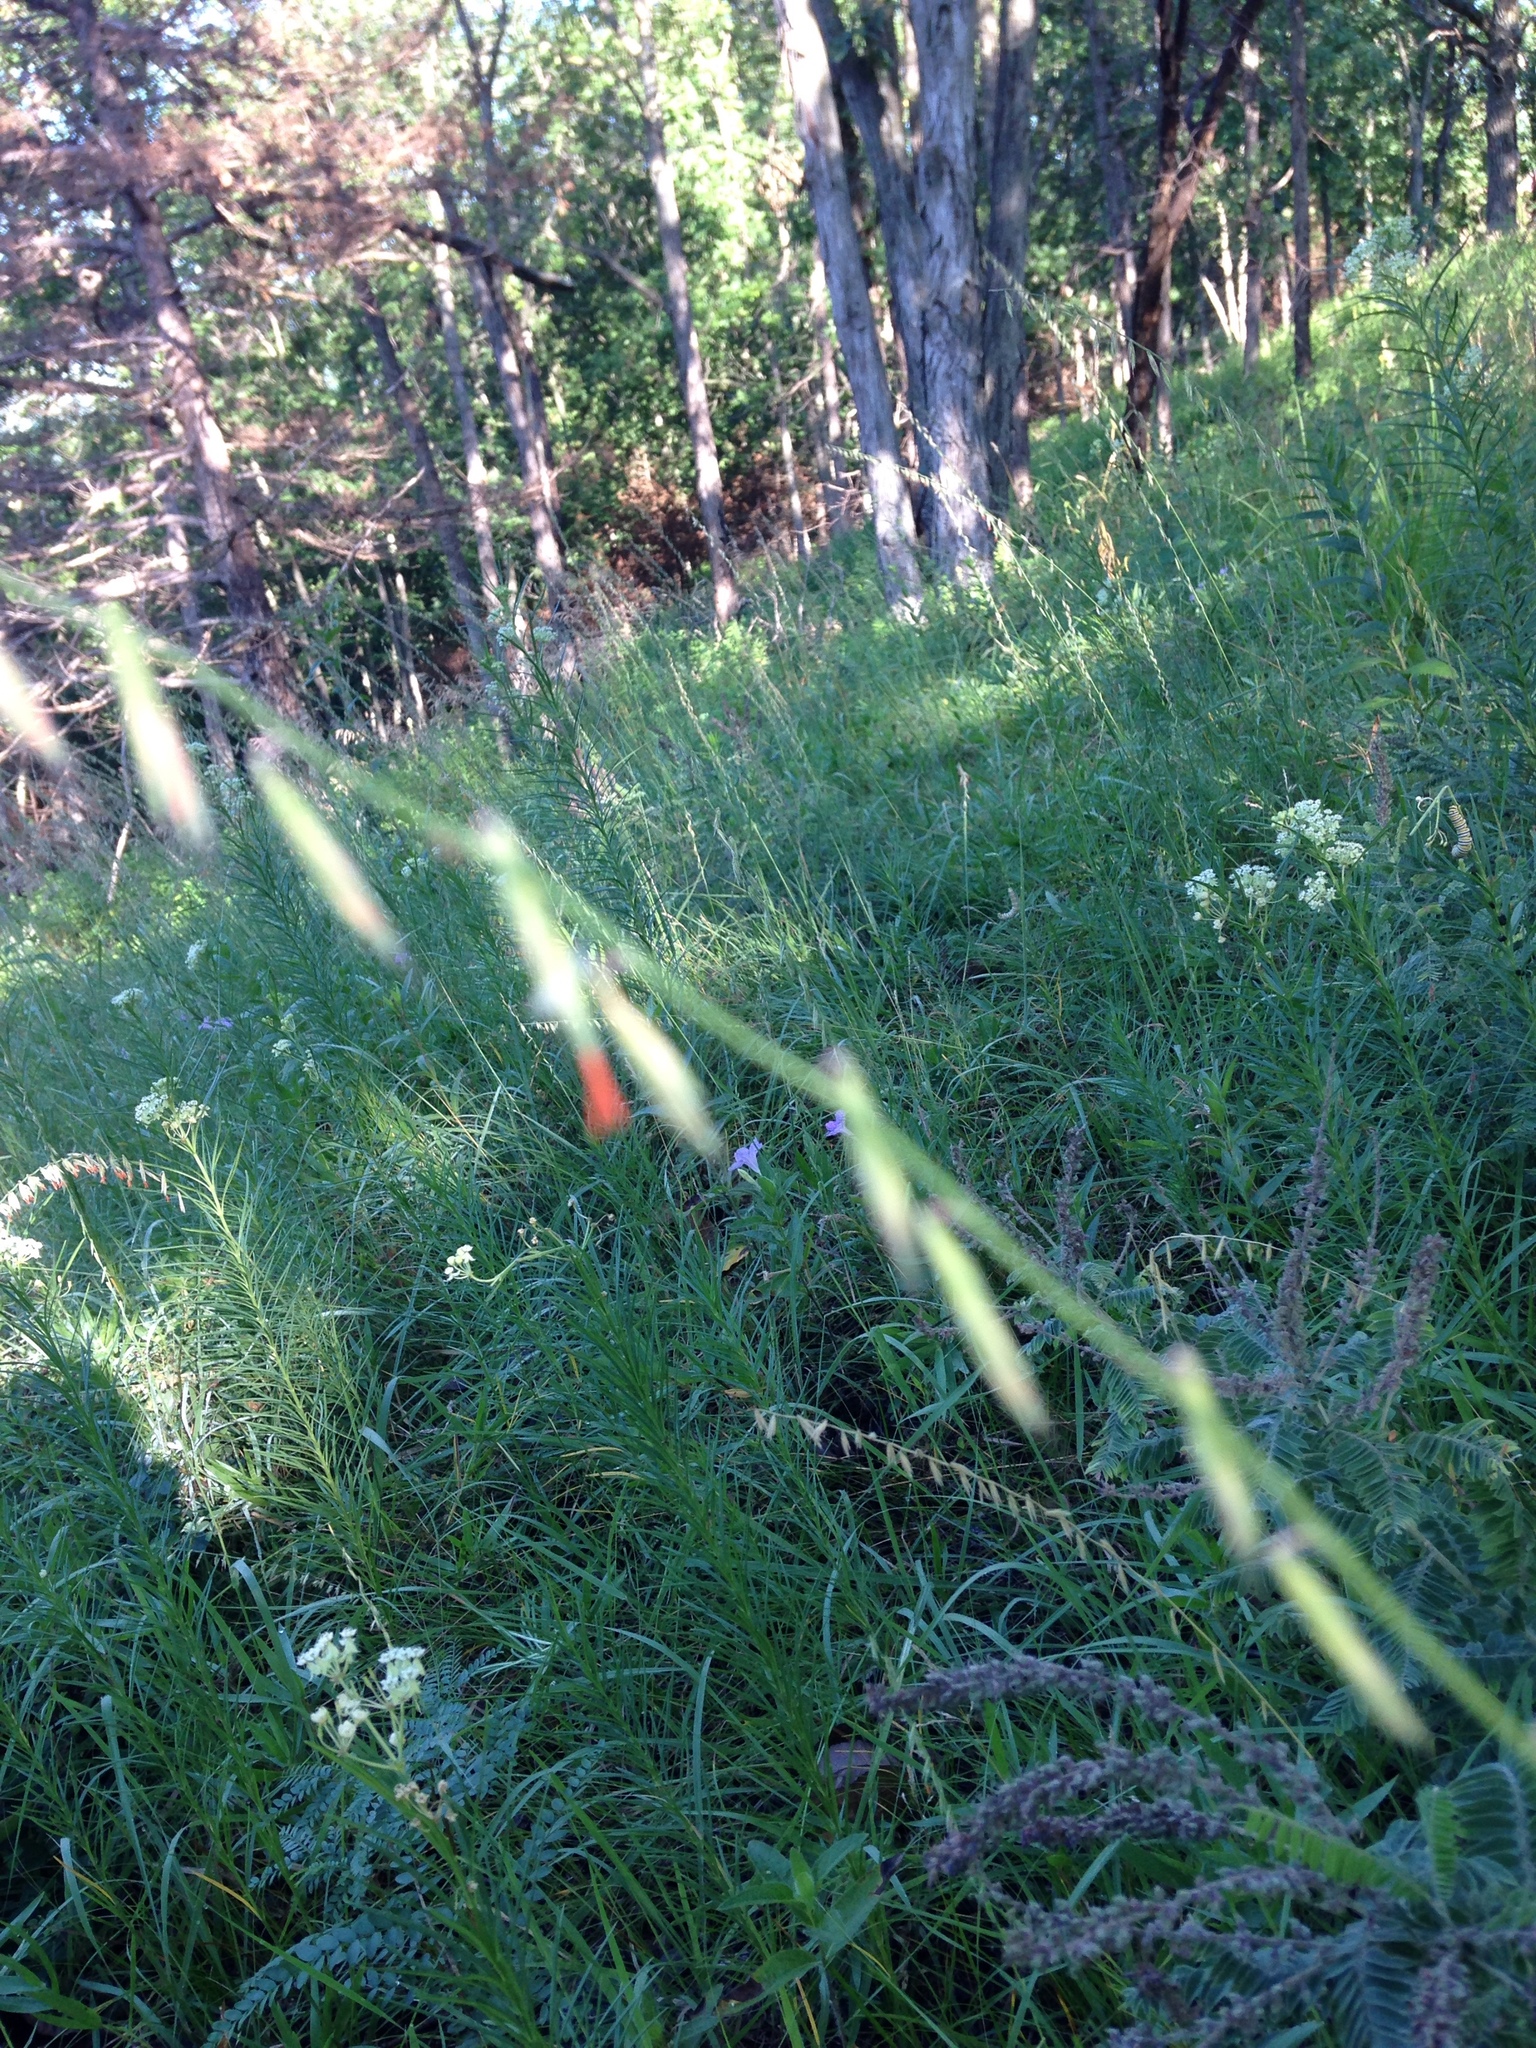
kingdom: Plantae
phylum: Tracheophyta
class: Liliopsida
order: Poales
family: Poaceae
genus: Bouteloua
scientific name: Bouteloua curtipendula
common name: Side-oats grama
